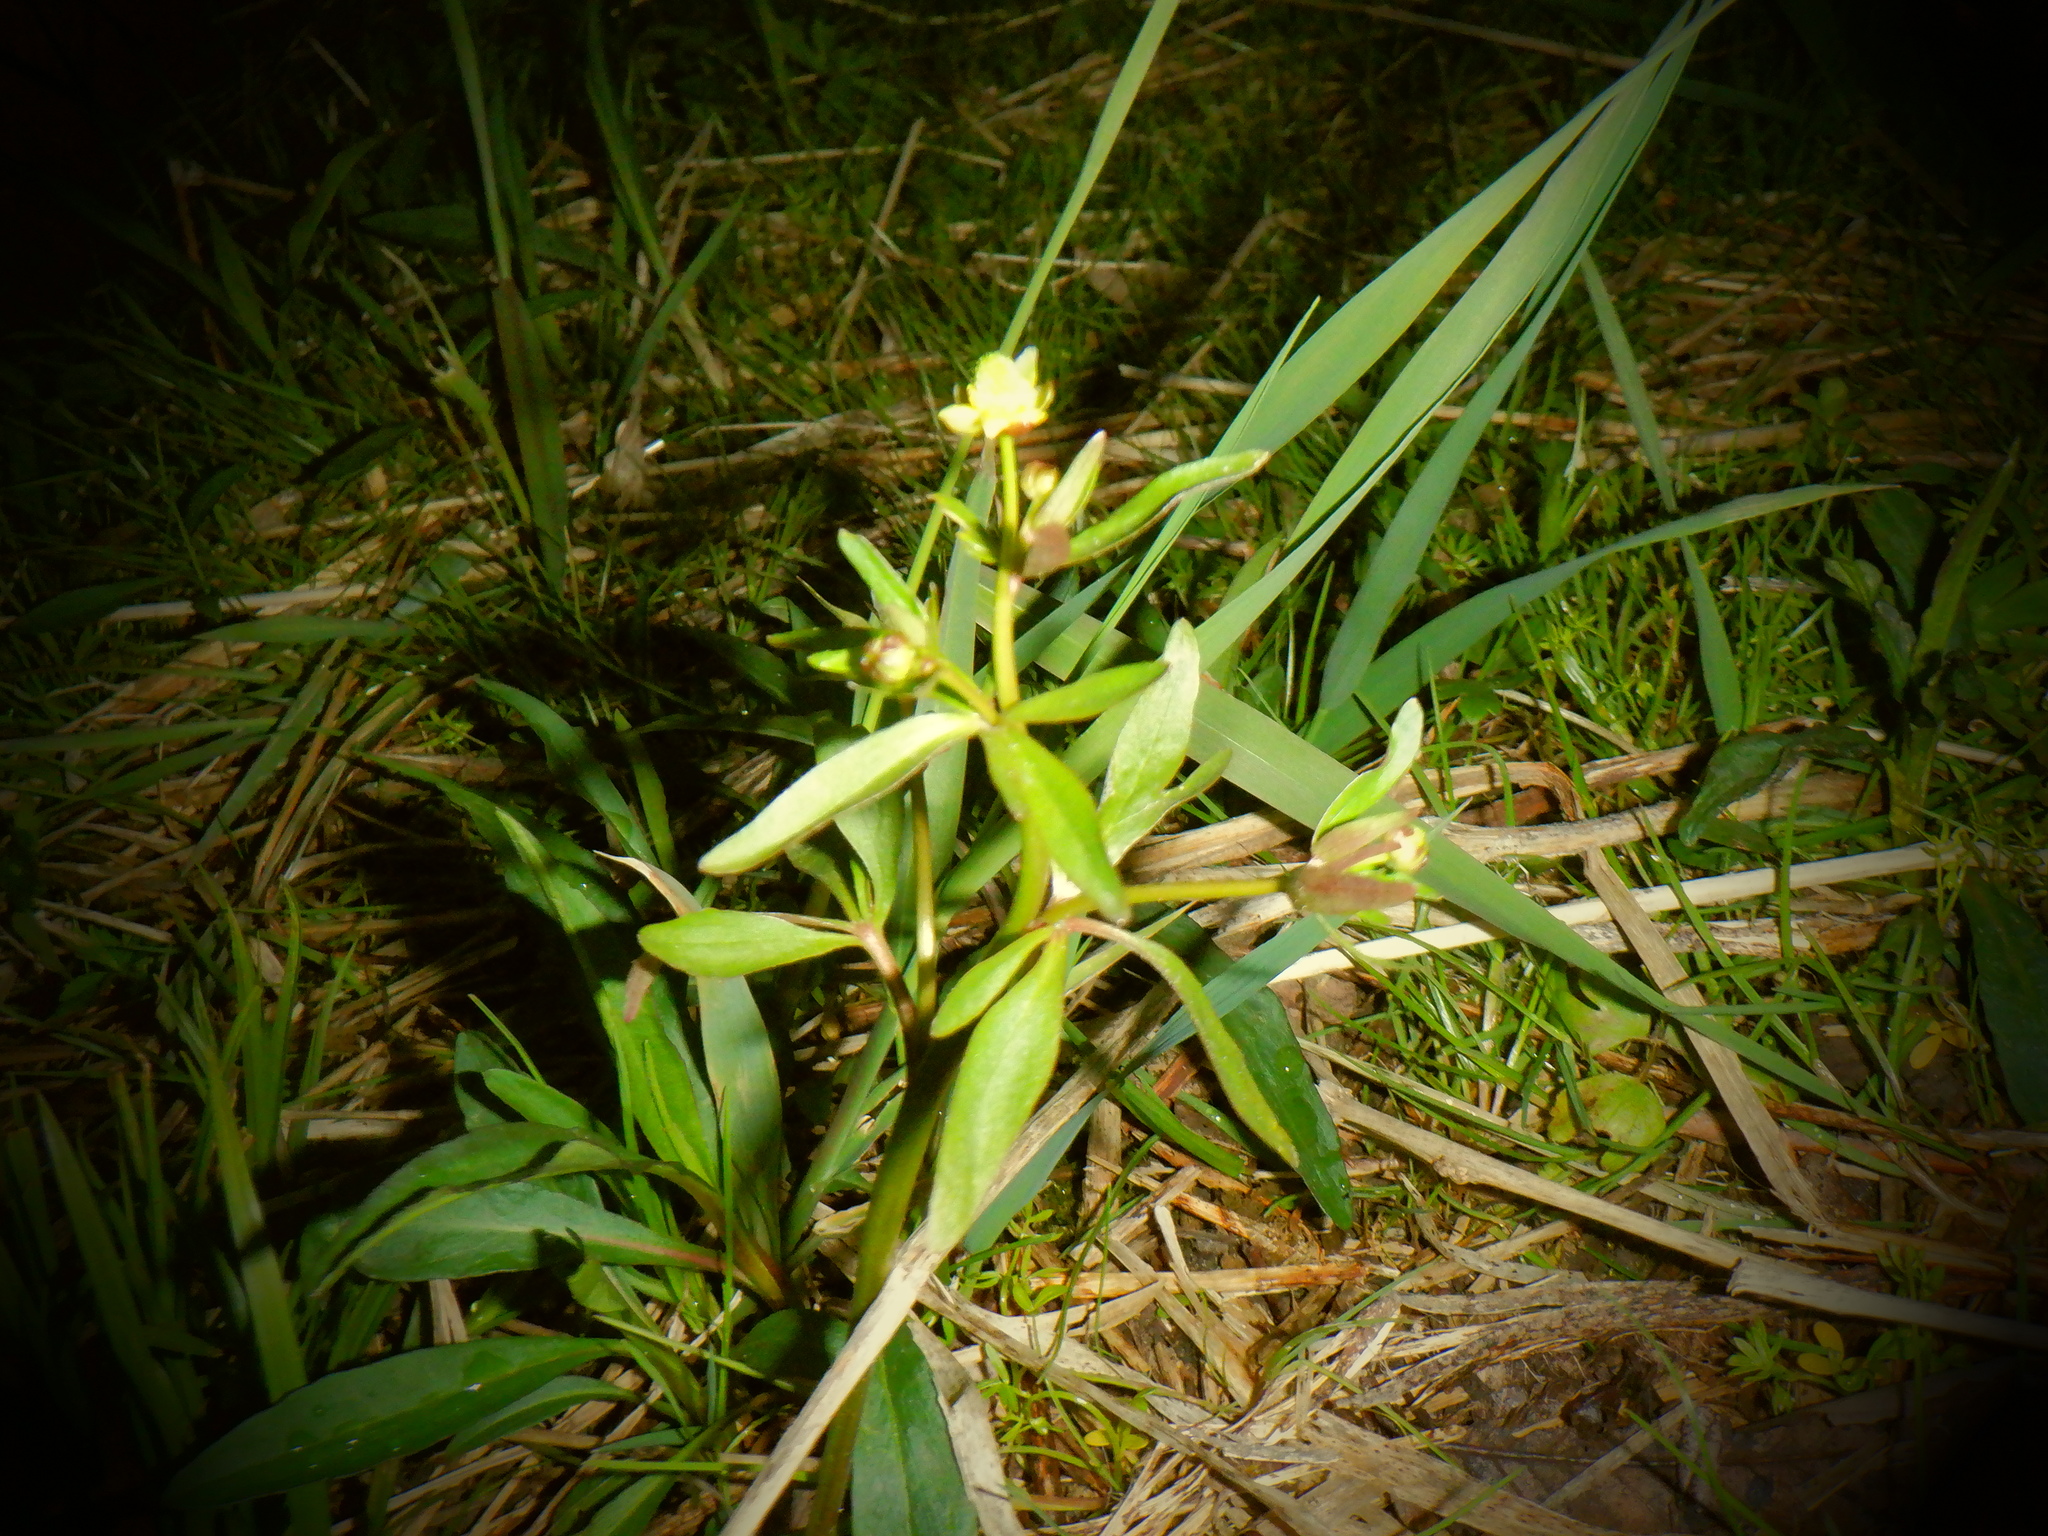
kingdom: Plantae
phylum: Tracheophyta
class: Magnoliopsida
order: Ranunculales
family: Ranunculaceae
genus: Ranunculus
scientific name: Ranunculus abortivus
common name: Early wood buttercup
